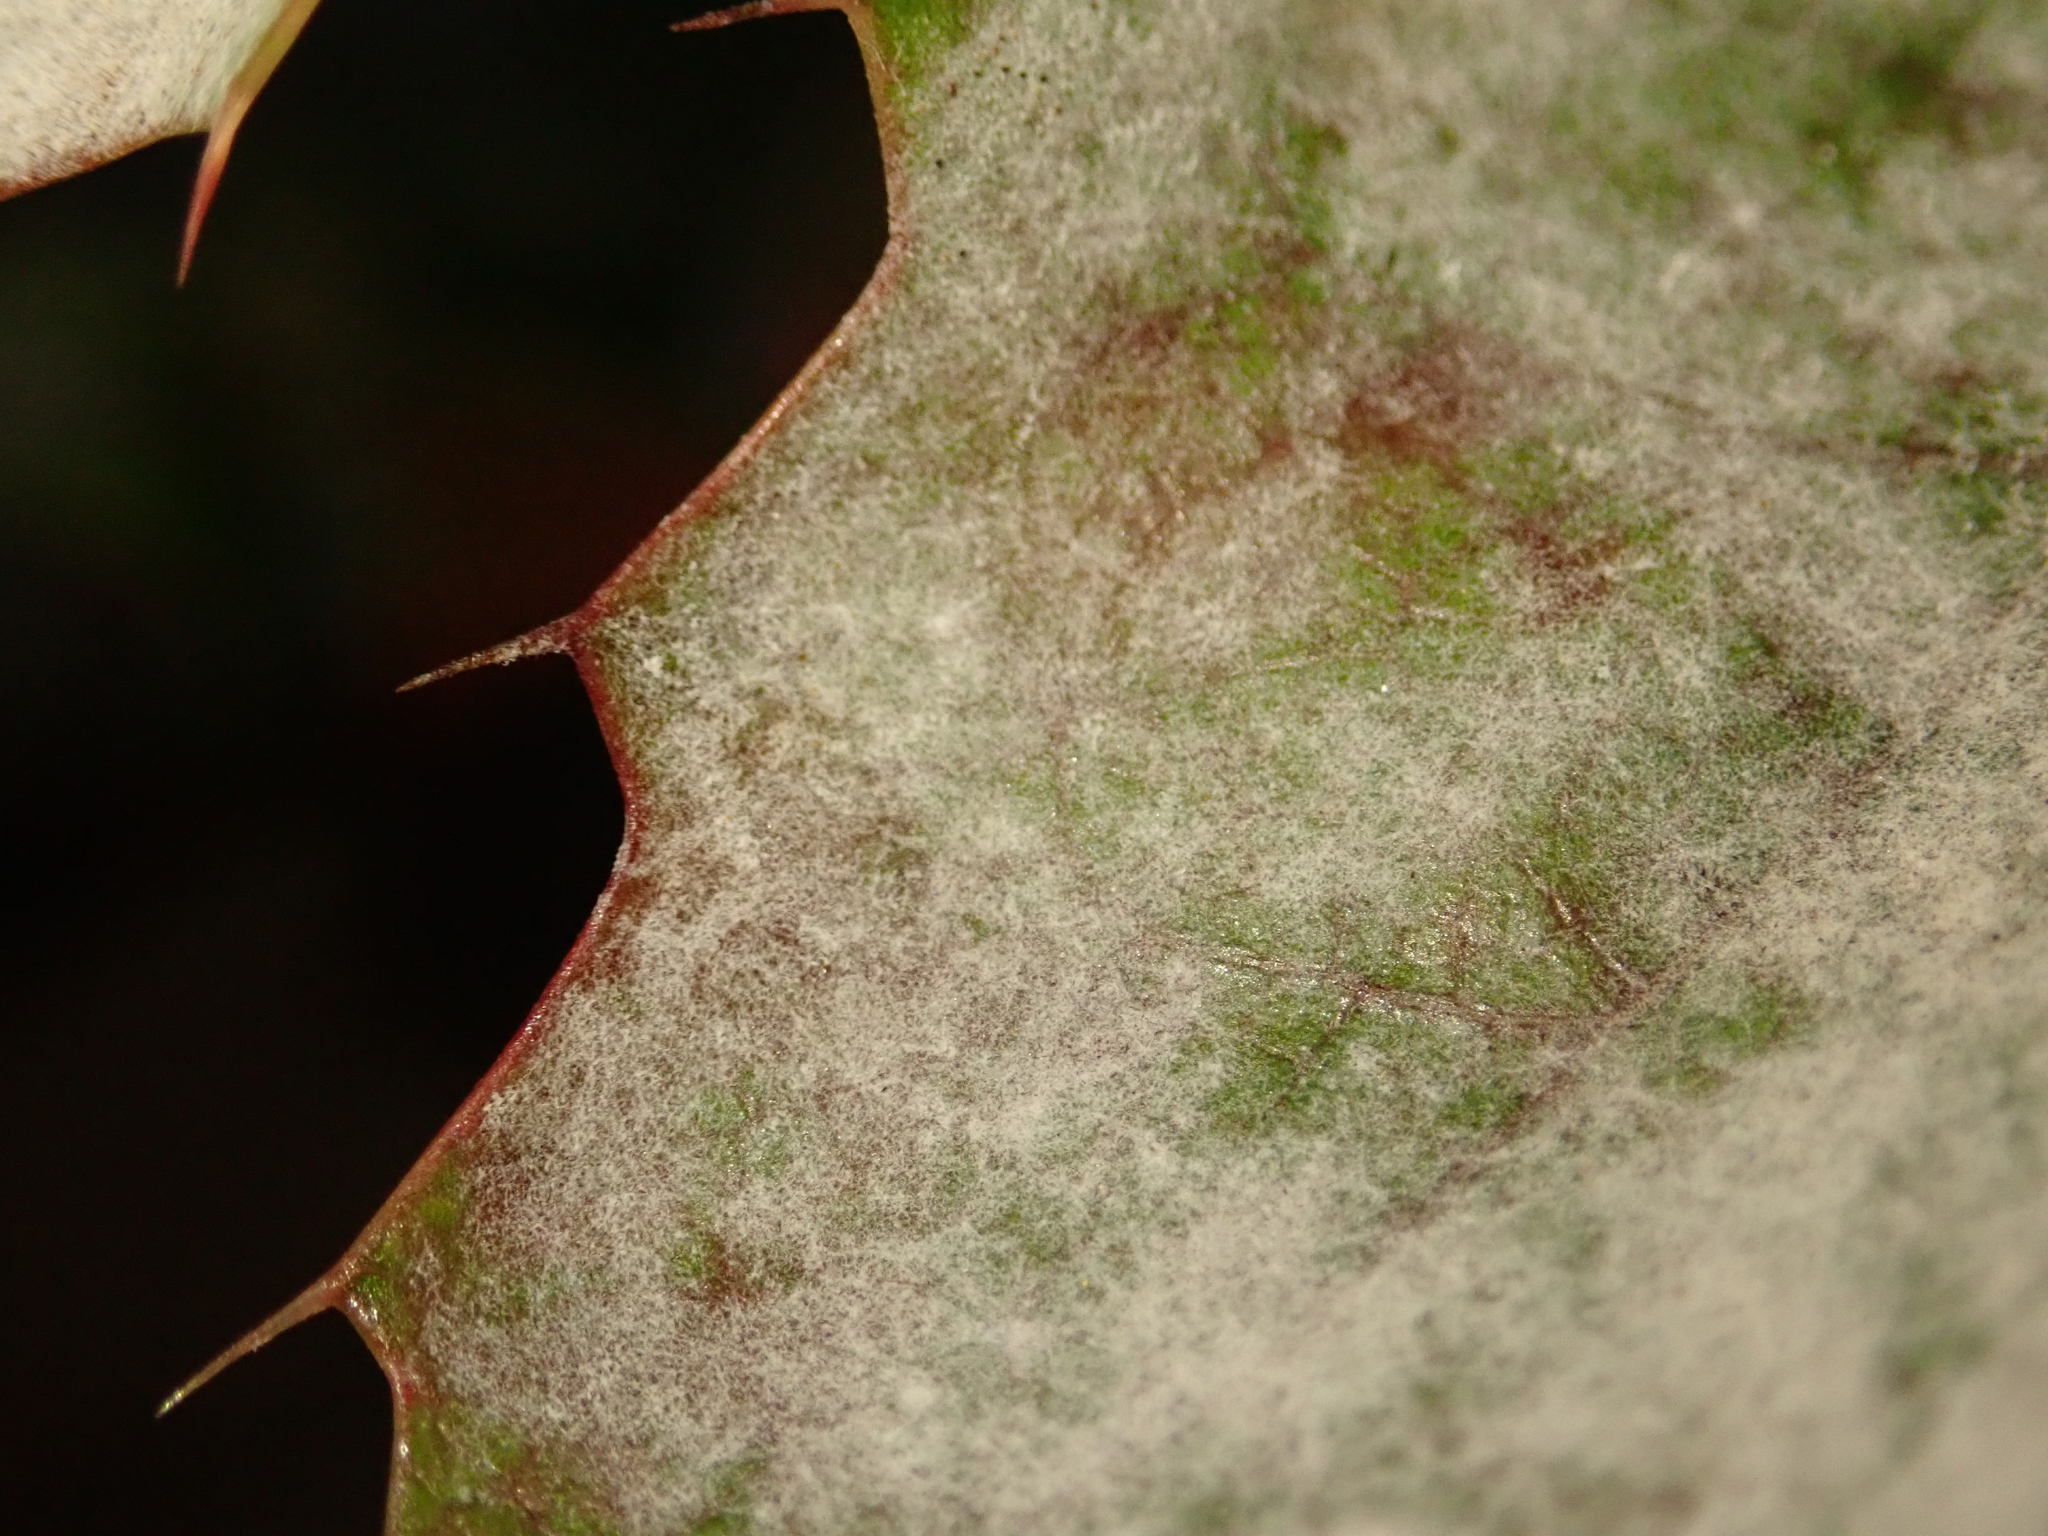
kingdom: Fungi
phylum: Ascomycota
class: Leotiomycetes
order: Helotiales
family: Erysiphaceae
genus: Erysiphe
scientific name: Erysiphe berberidis
